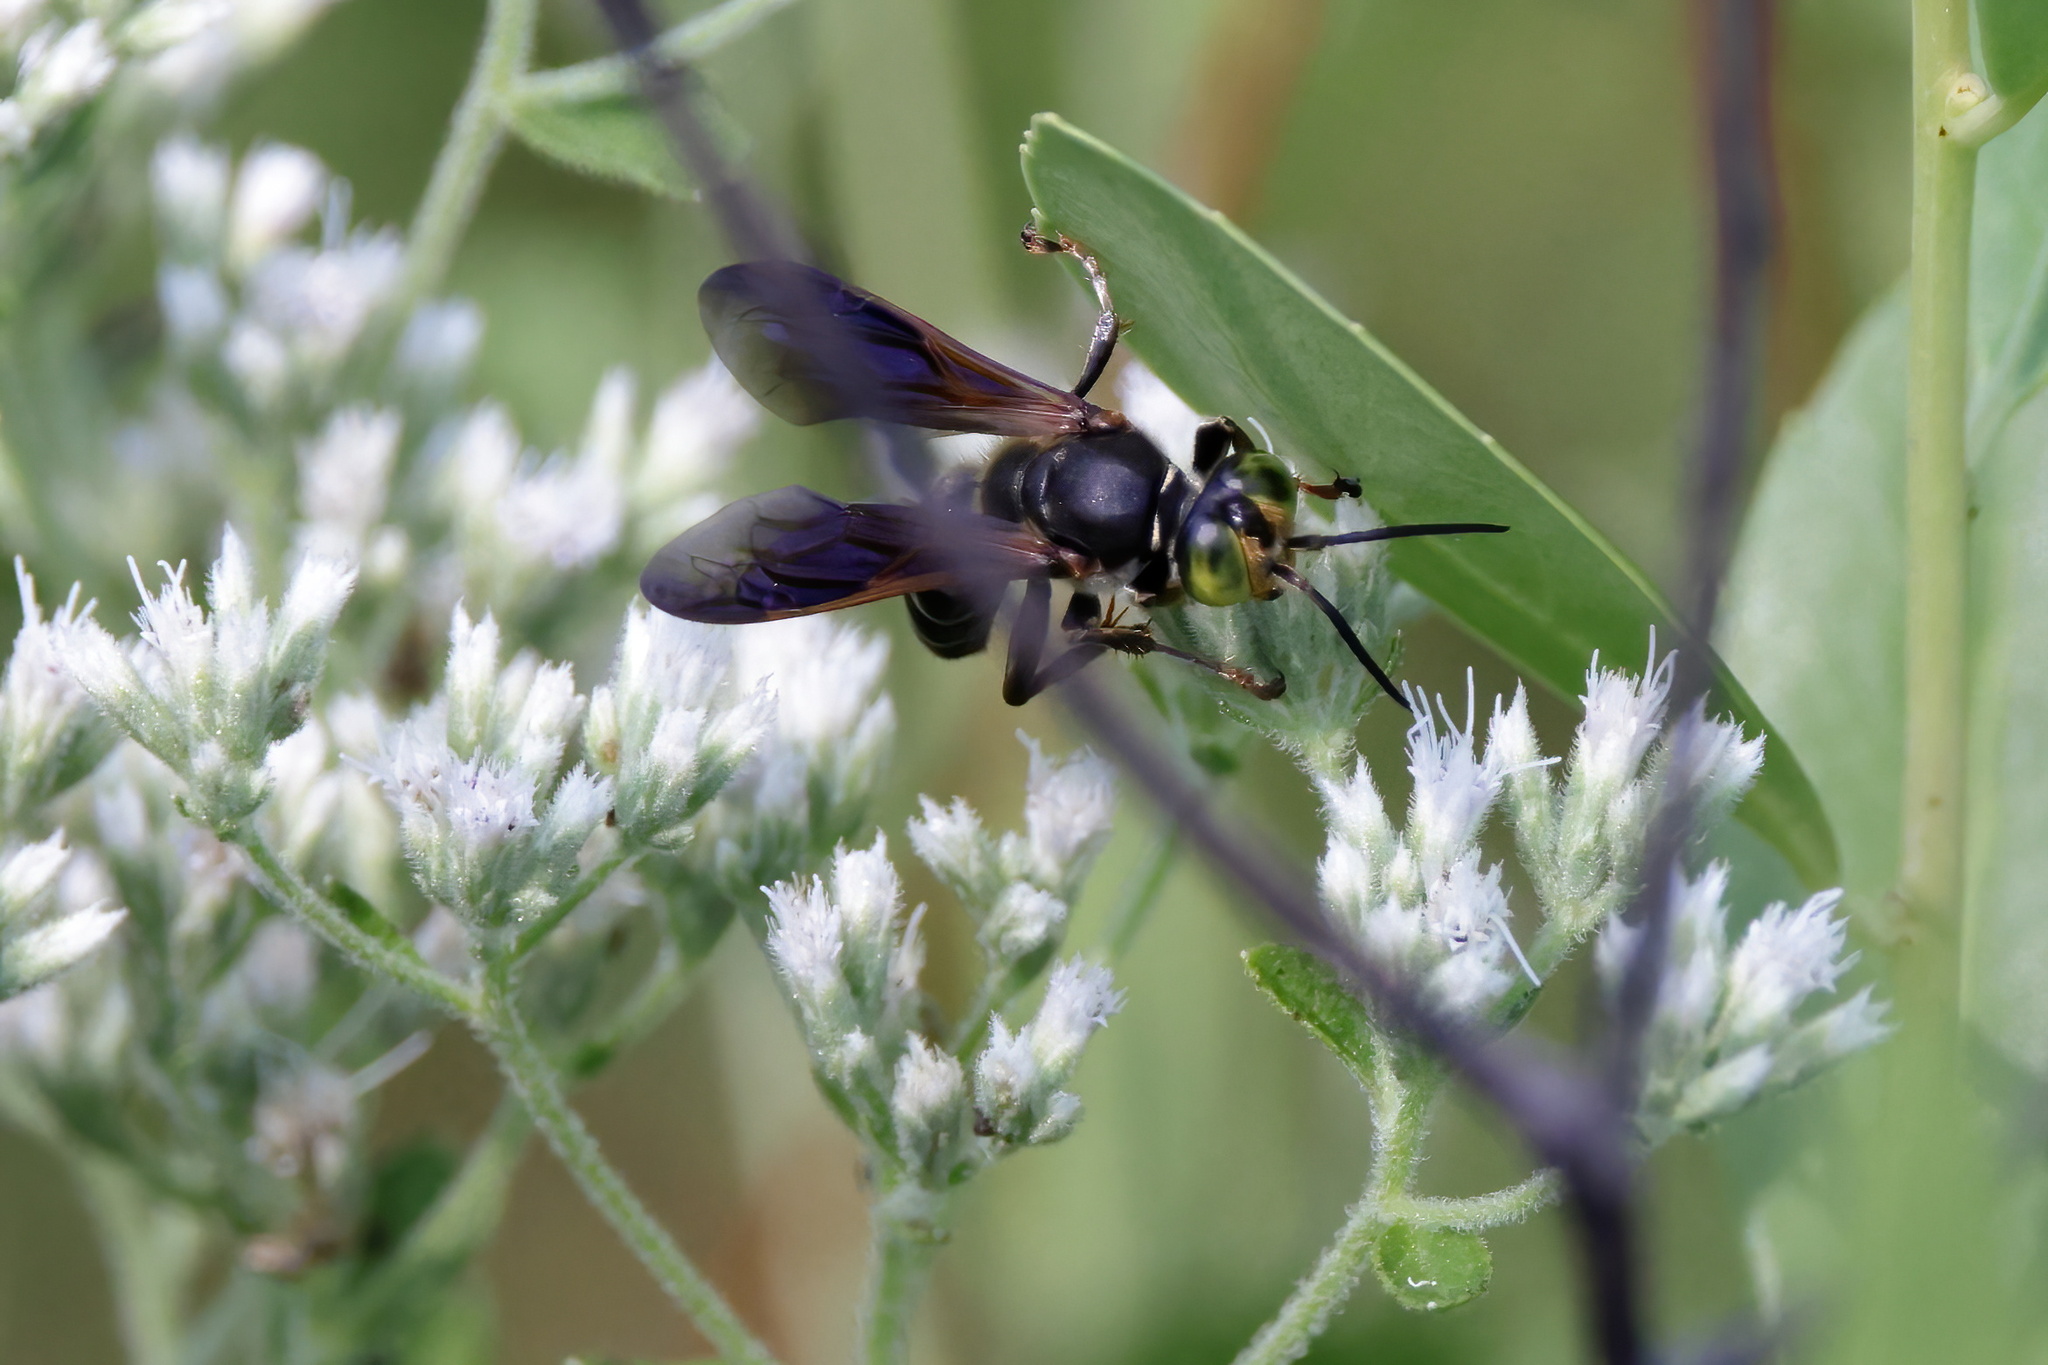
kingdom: Animalia
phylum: Arthropoda
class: Insecta
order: Hymenoptera
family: Crabronidae
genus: Tachytes
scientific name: Tachytes guatemalensis
